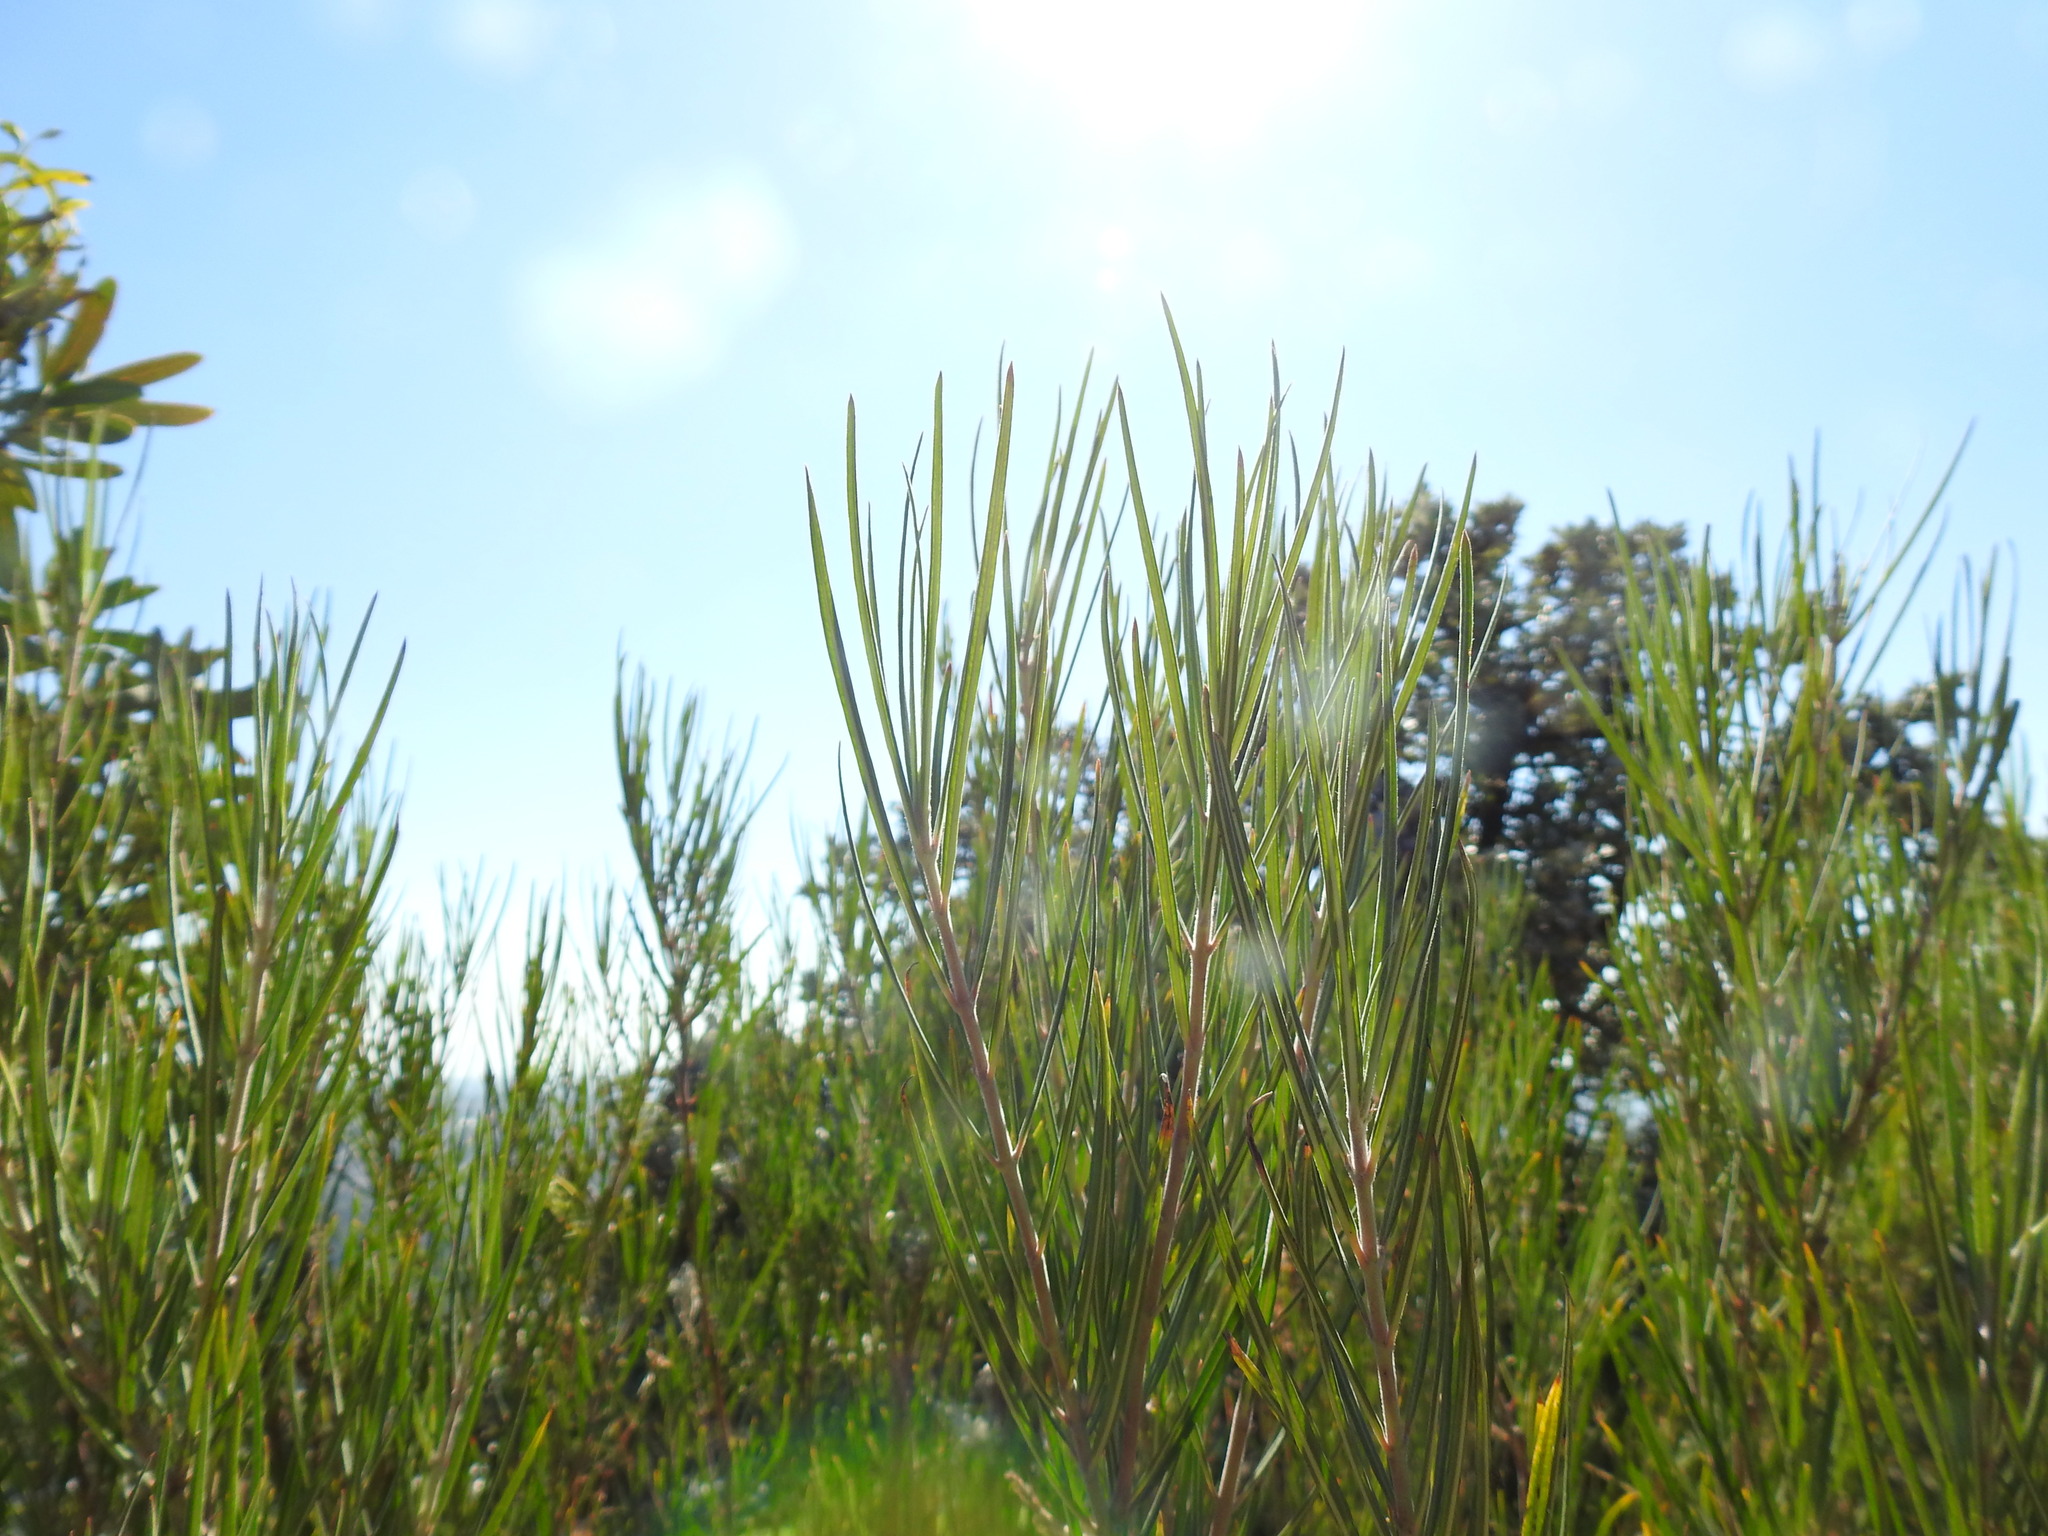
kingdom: Plantae
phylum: Tracheophyta
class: Magnoliopsida
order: Gentianales
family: Apocynaceae
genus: Gomphocarpus
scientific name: Gomphocarpus tomentosus
